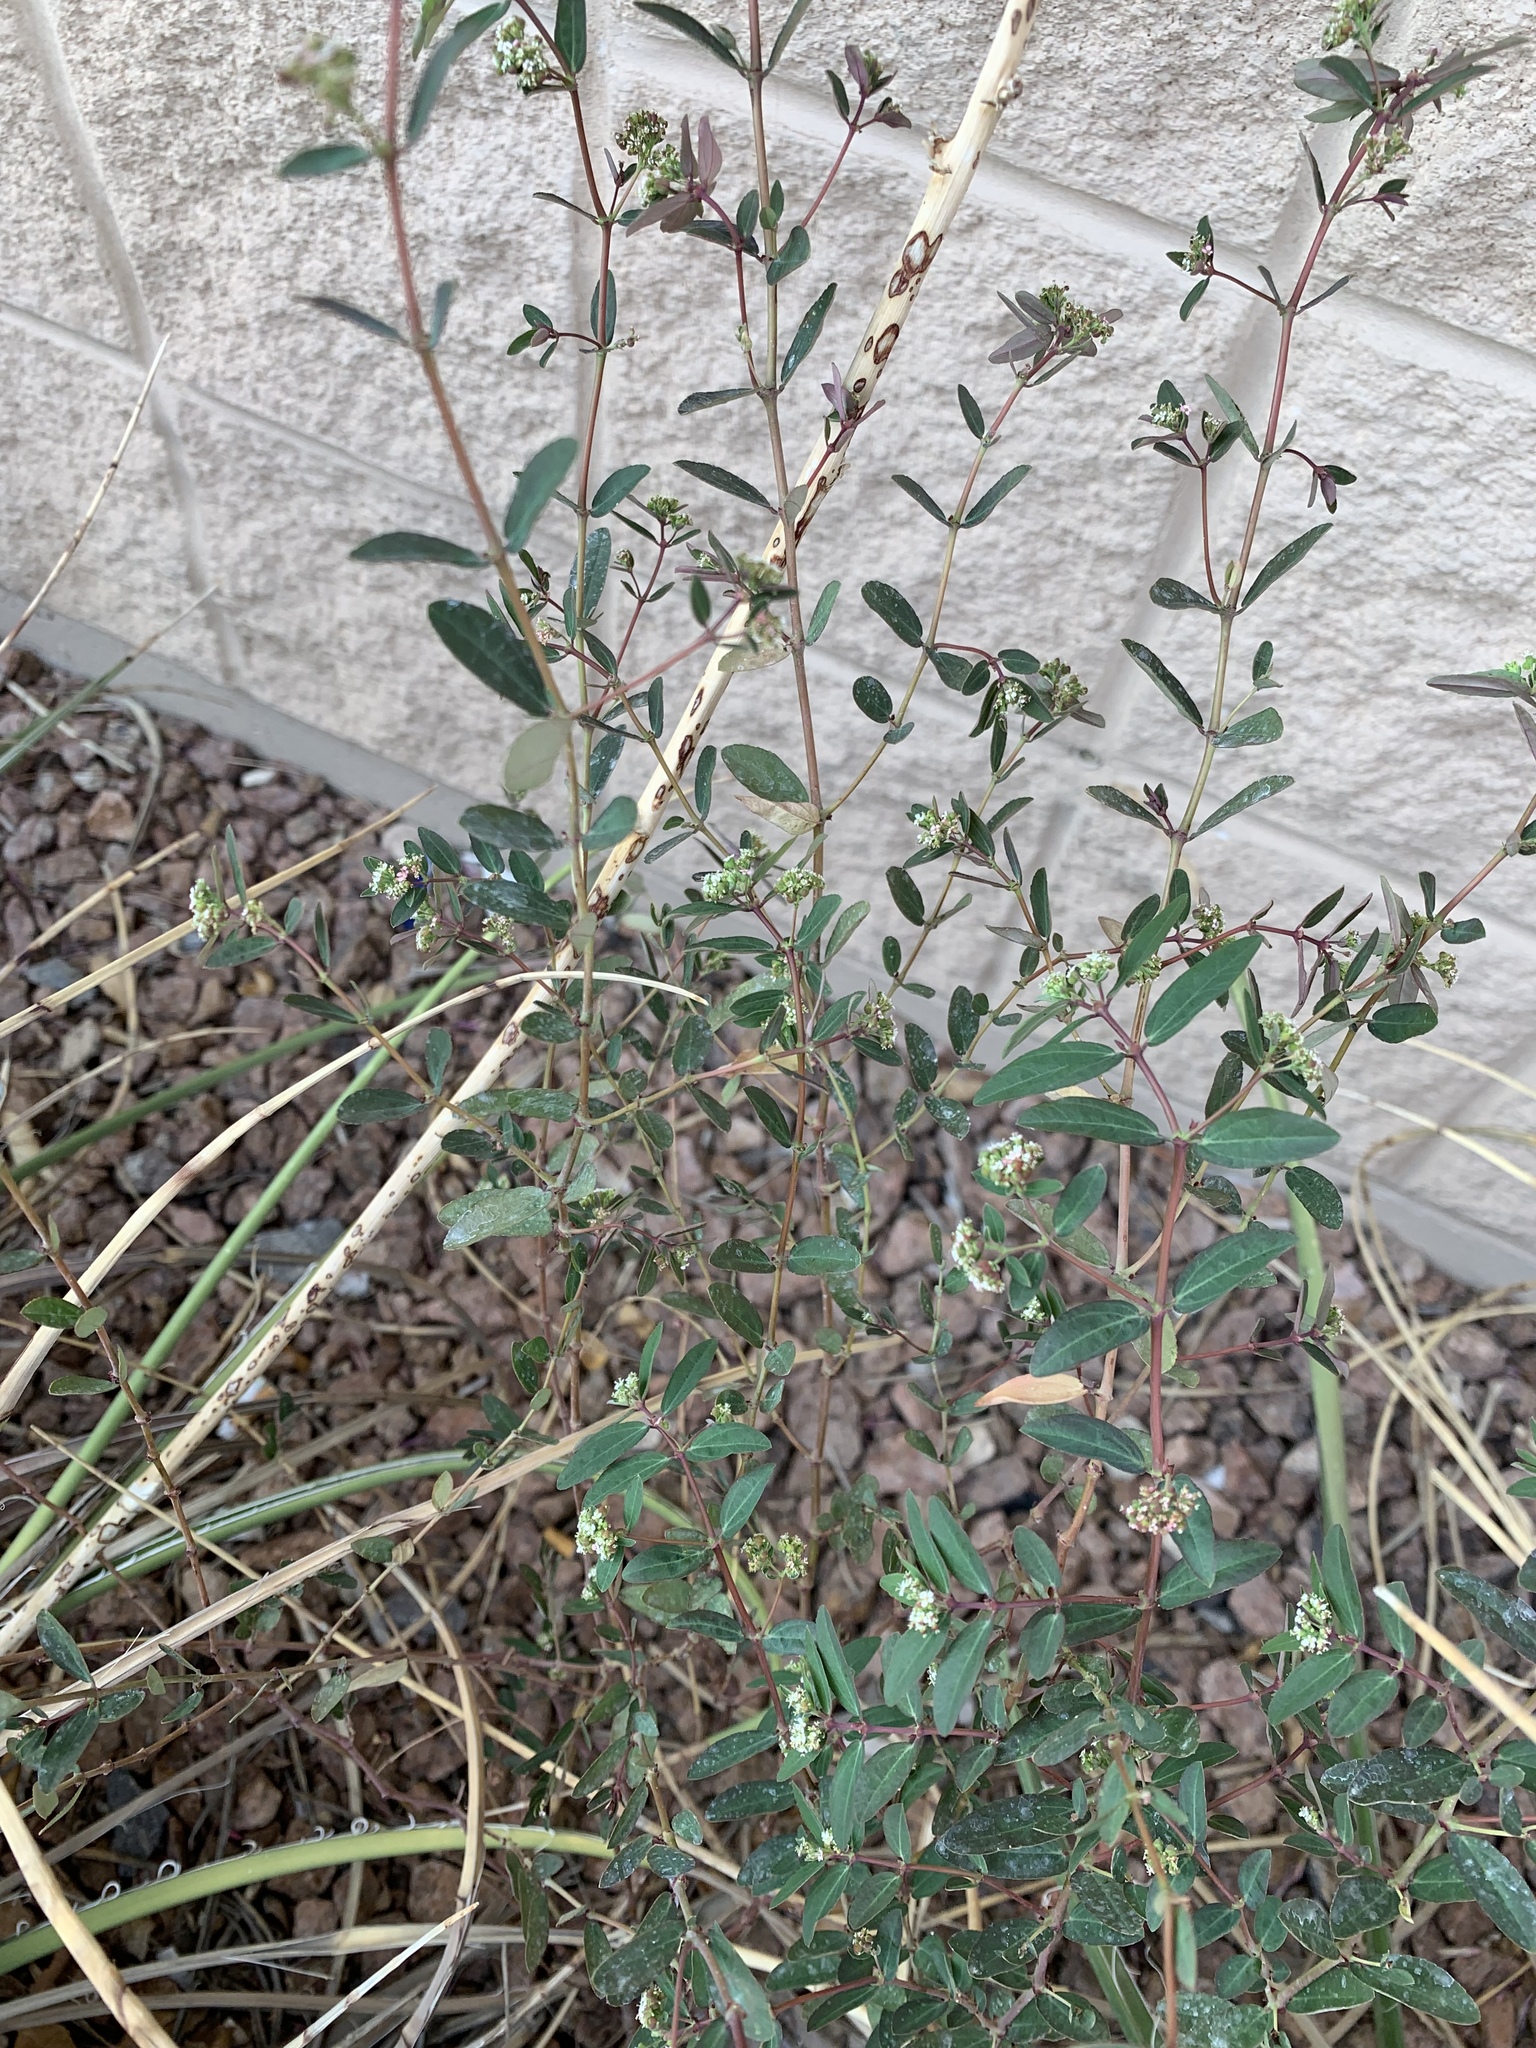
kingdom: Plantae
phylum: Tracheophyta
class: Magnoliopsida
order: Malpighiales
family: Euphorbiaceae
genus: Euphorbia
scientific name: Euphorbia hypericifolia
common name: Graceful sandmat
